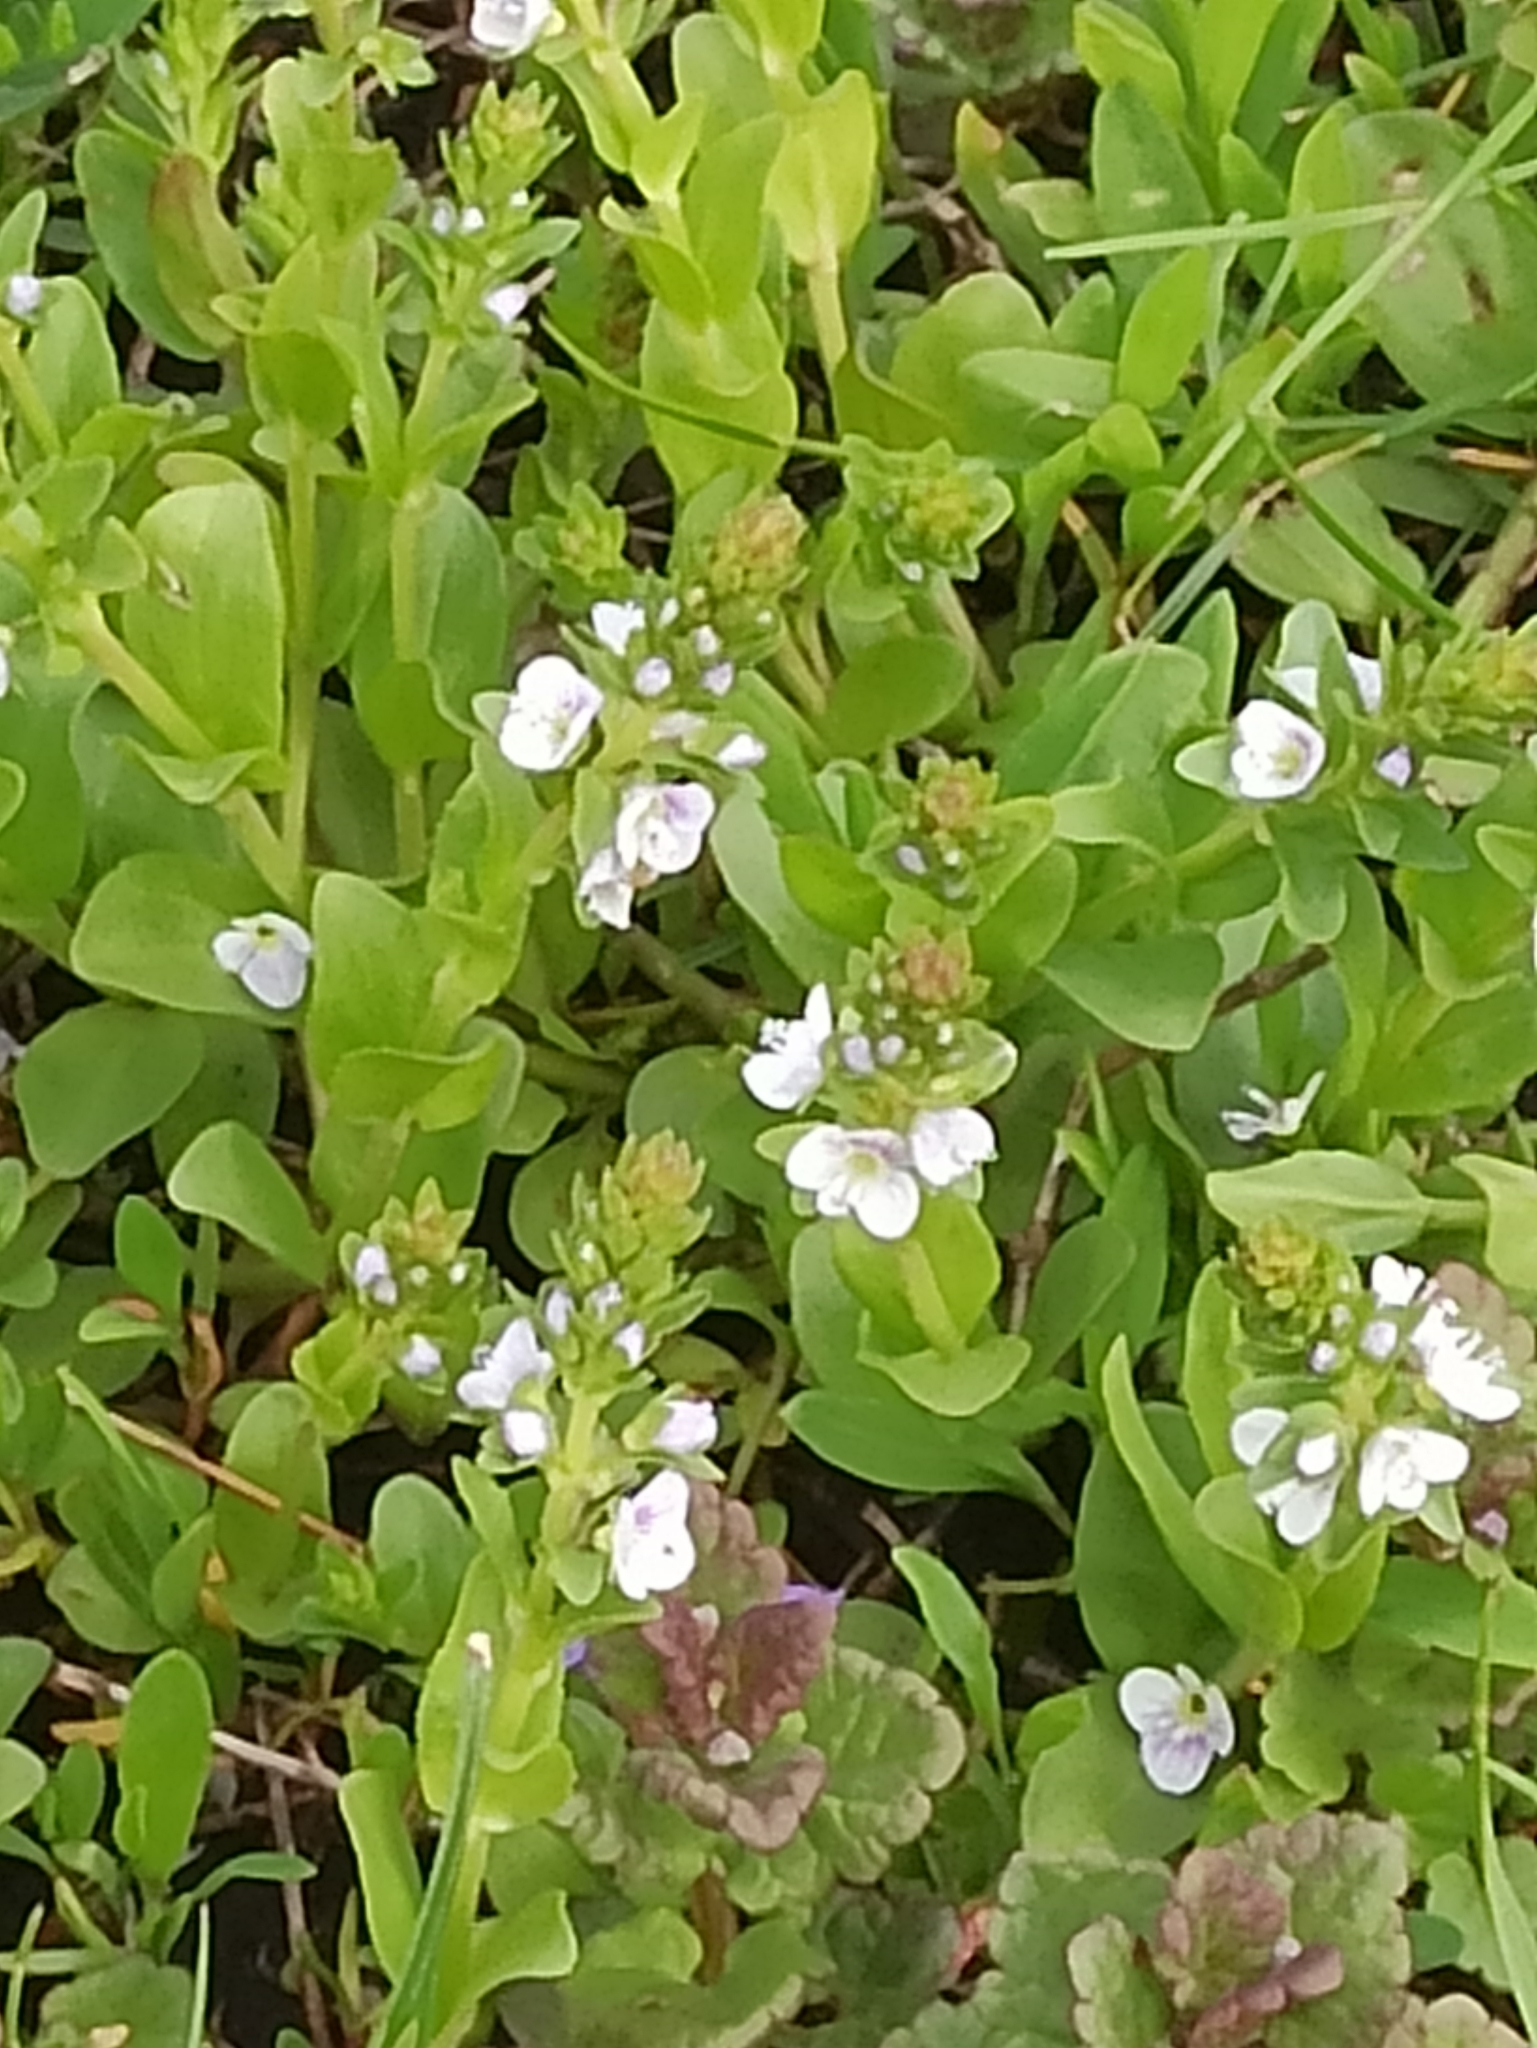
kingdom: Plantae
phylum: Tracheophyta
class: Magnoliopsida
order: Lamiales
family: Plantaginaceae
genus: Veronica
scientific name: Veronica serpyllifolia
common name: Thyme-leaved speedwell
